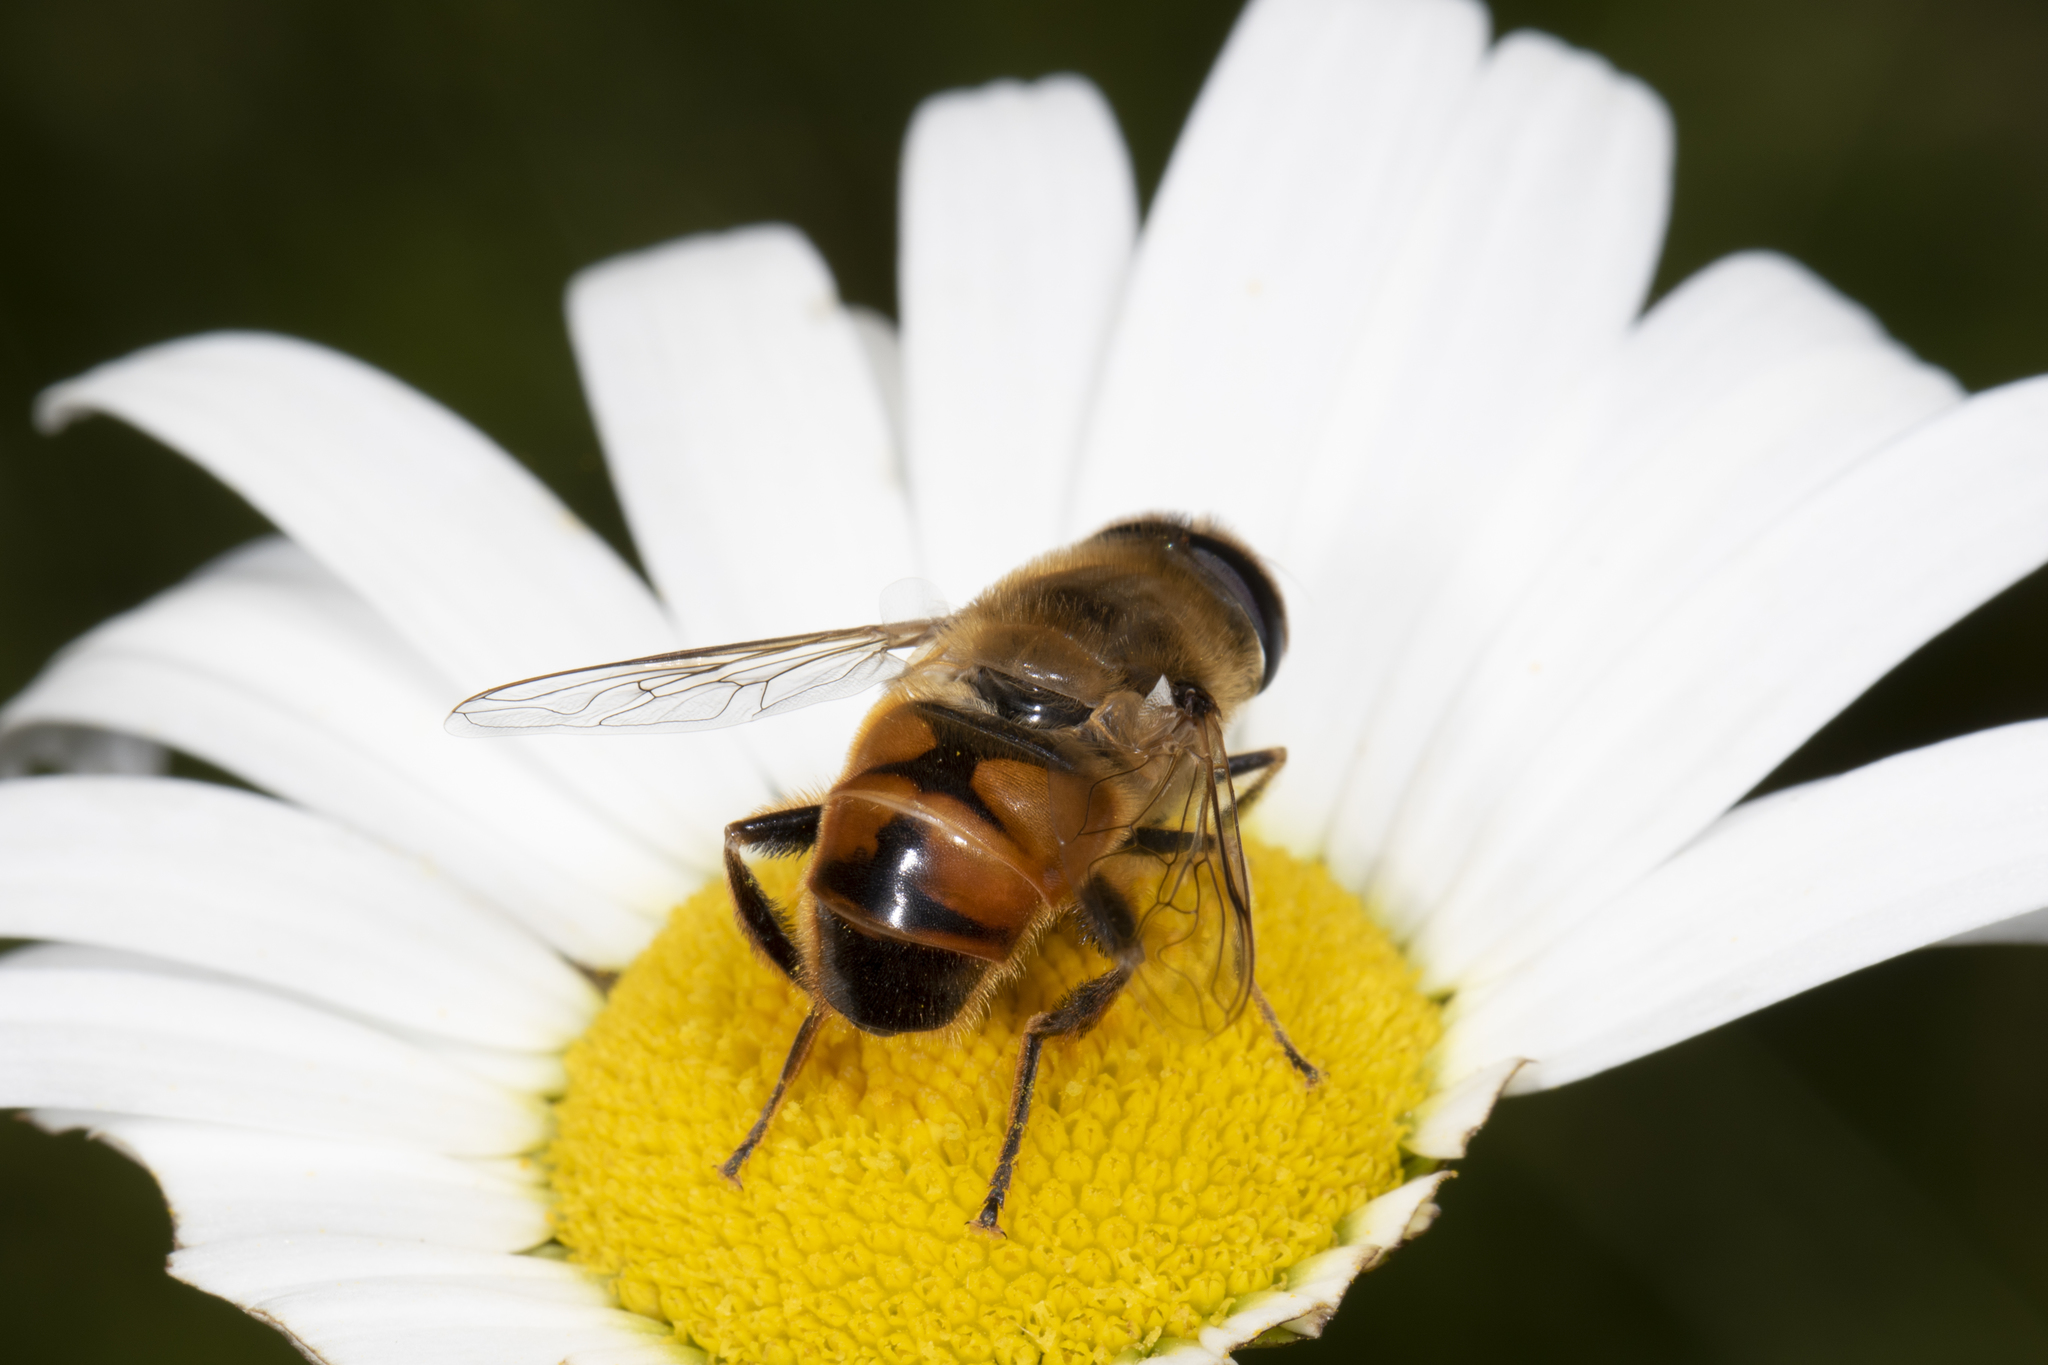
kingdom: Animalia
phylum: Arthropoda
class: Insecta
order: Diptera
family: Syrphidae
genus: Eristalis
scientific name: Eristalis tenax
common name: Drone fly
